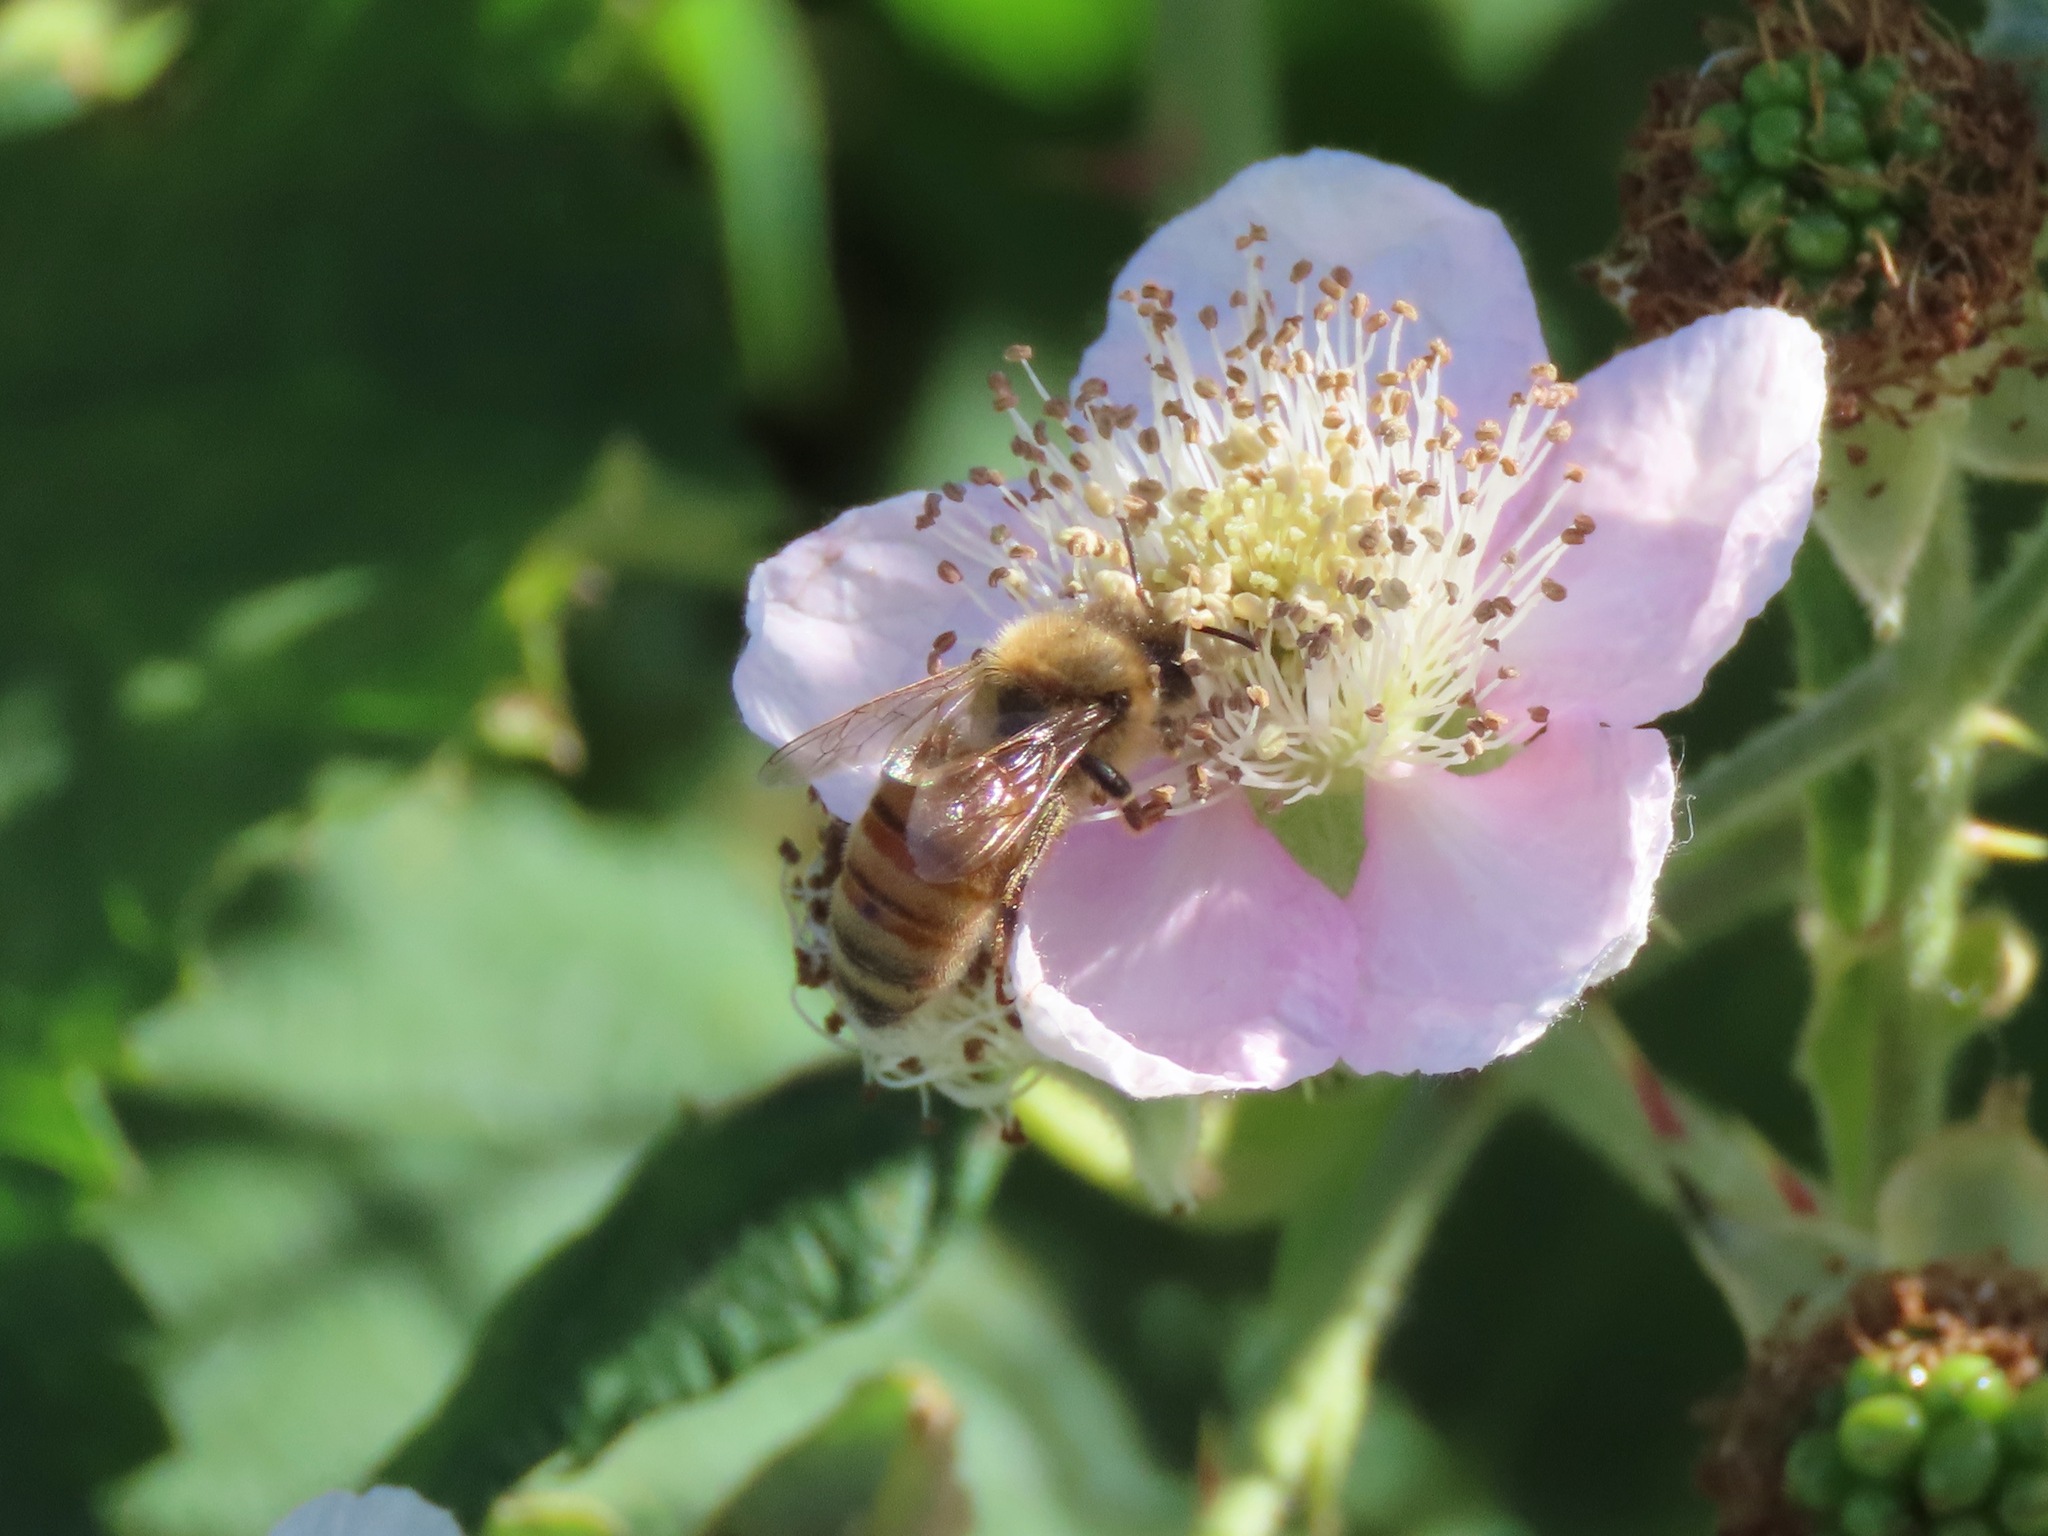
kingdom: Animalia
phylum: Arthropoda
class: Insecta
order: Hymenoptera
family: Apidae
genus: Apis
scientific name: Apis mellifera
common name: Honey bee
